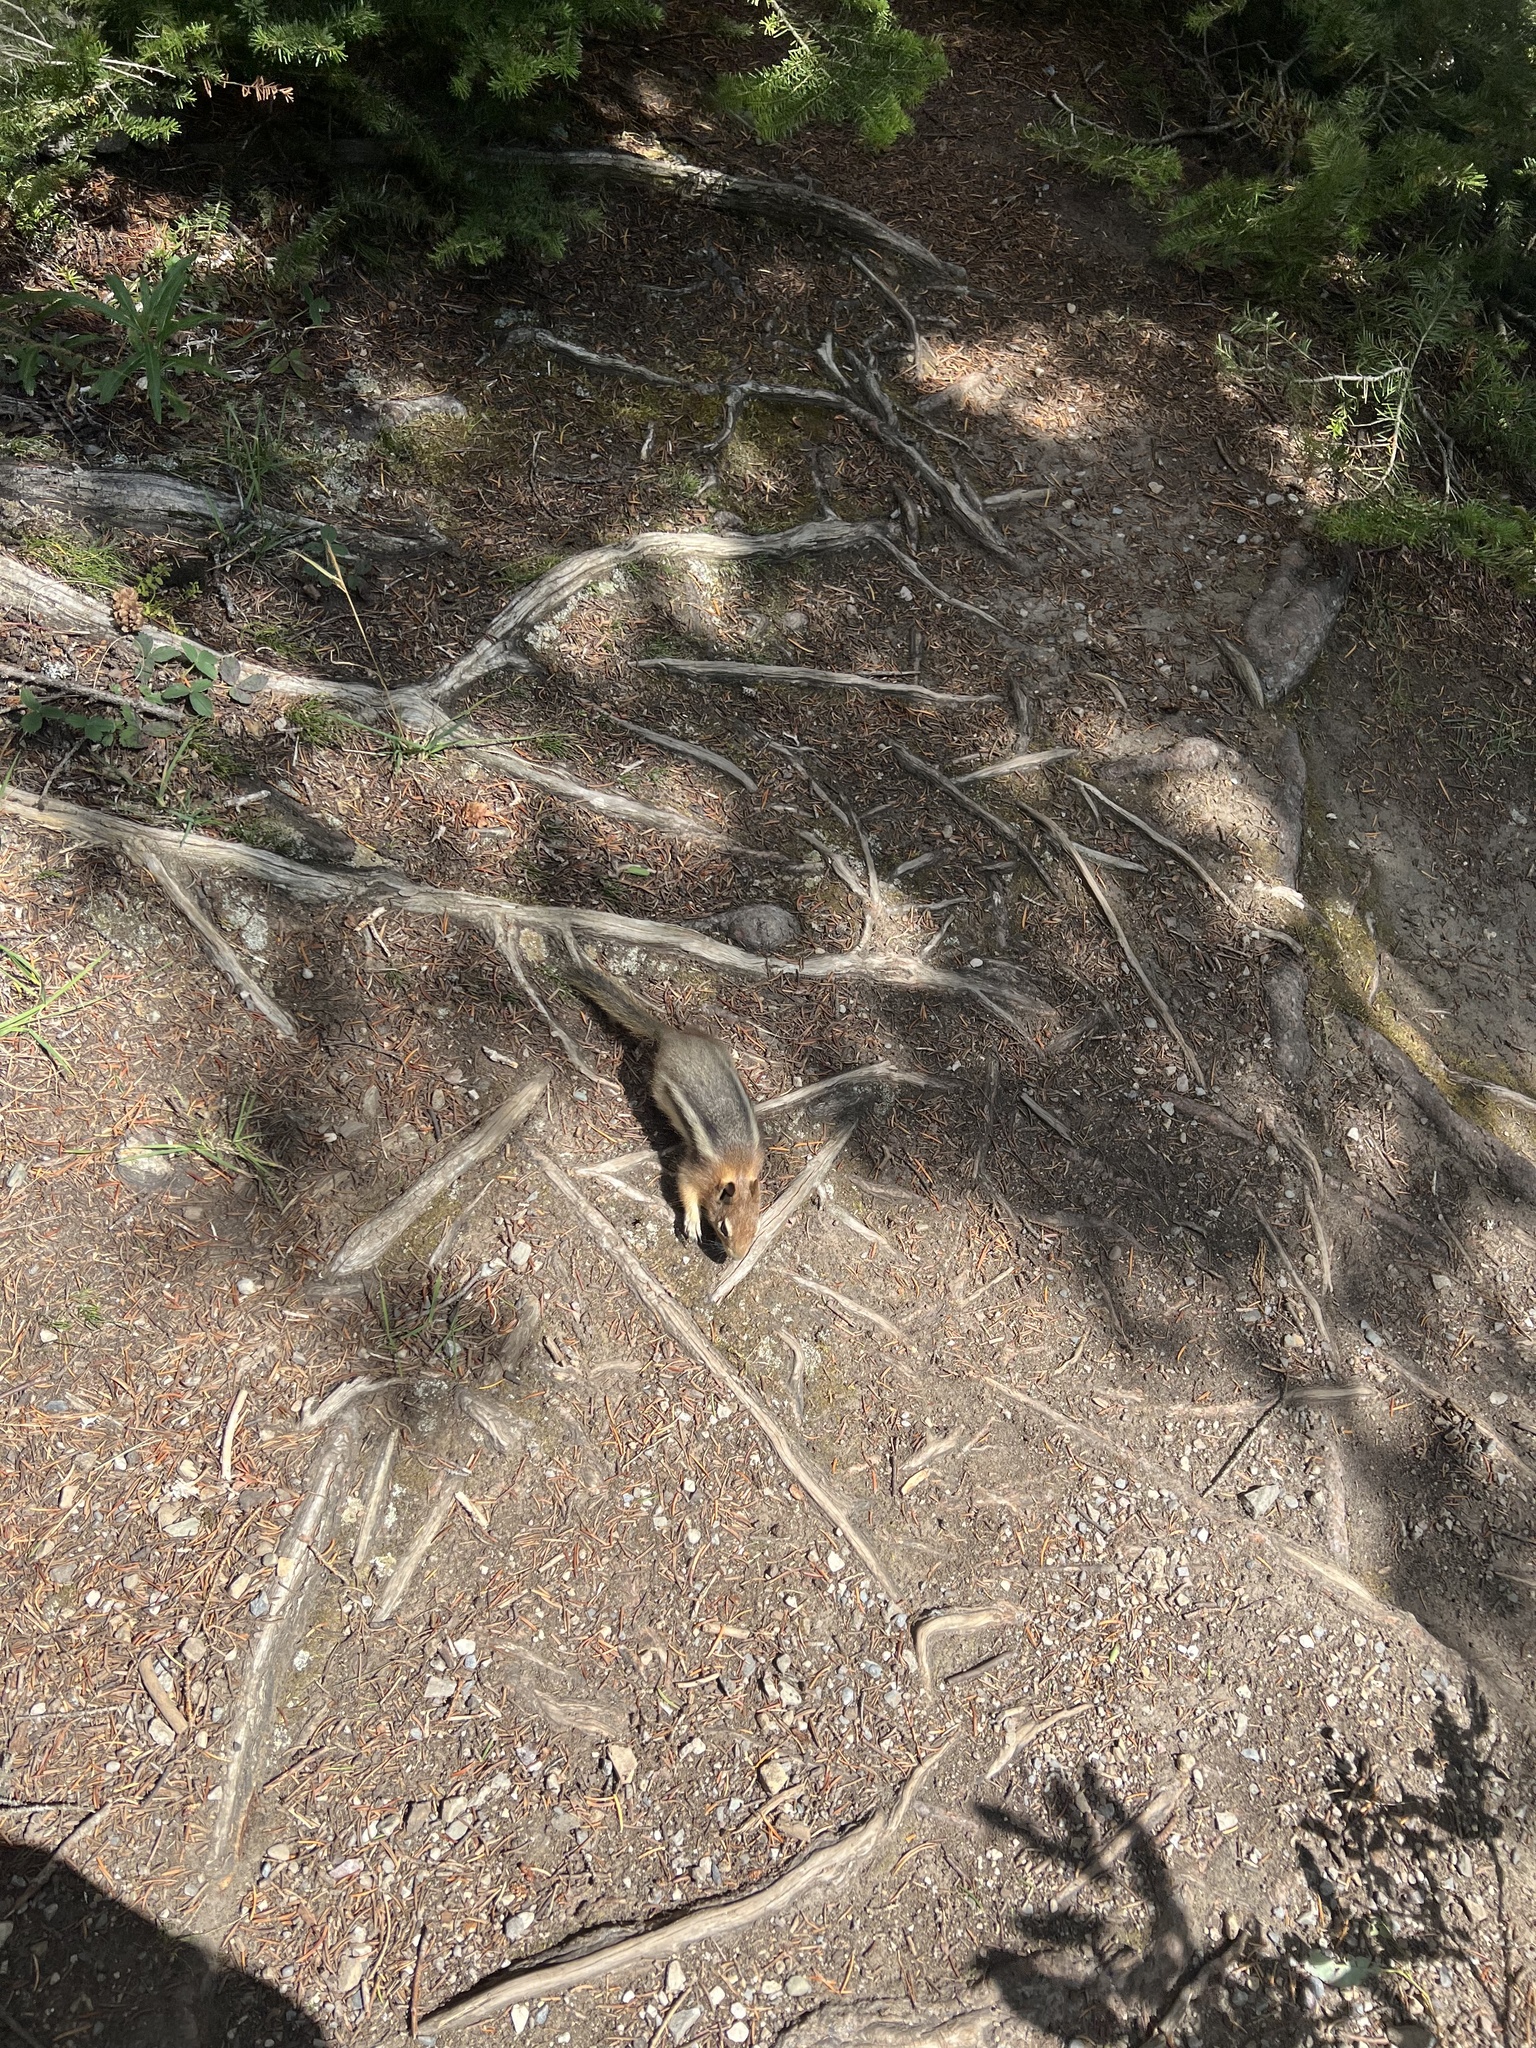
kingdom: Animalia
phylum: Chordata
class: Mammalia
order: Rodentia
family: Sciuridae
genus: Callospermophilus
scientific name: Callospermophilus lateralis
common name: Golden-mantled ground squirrel
